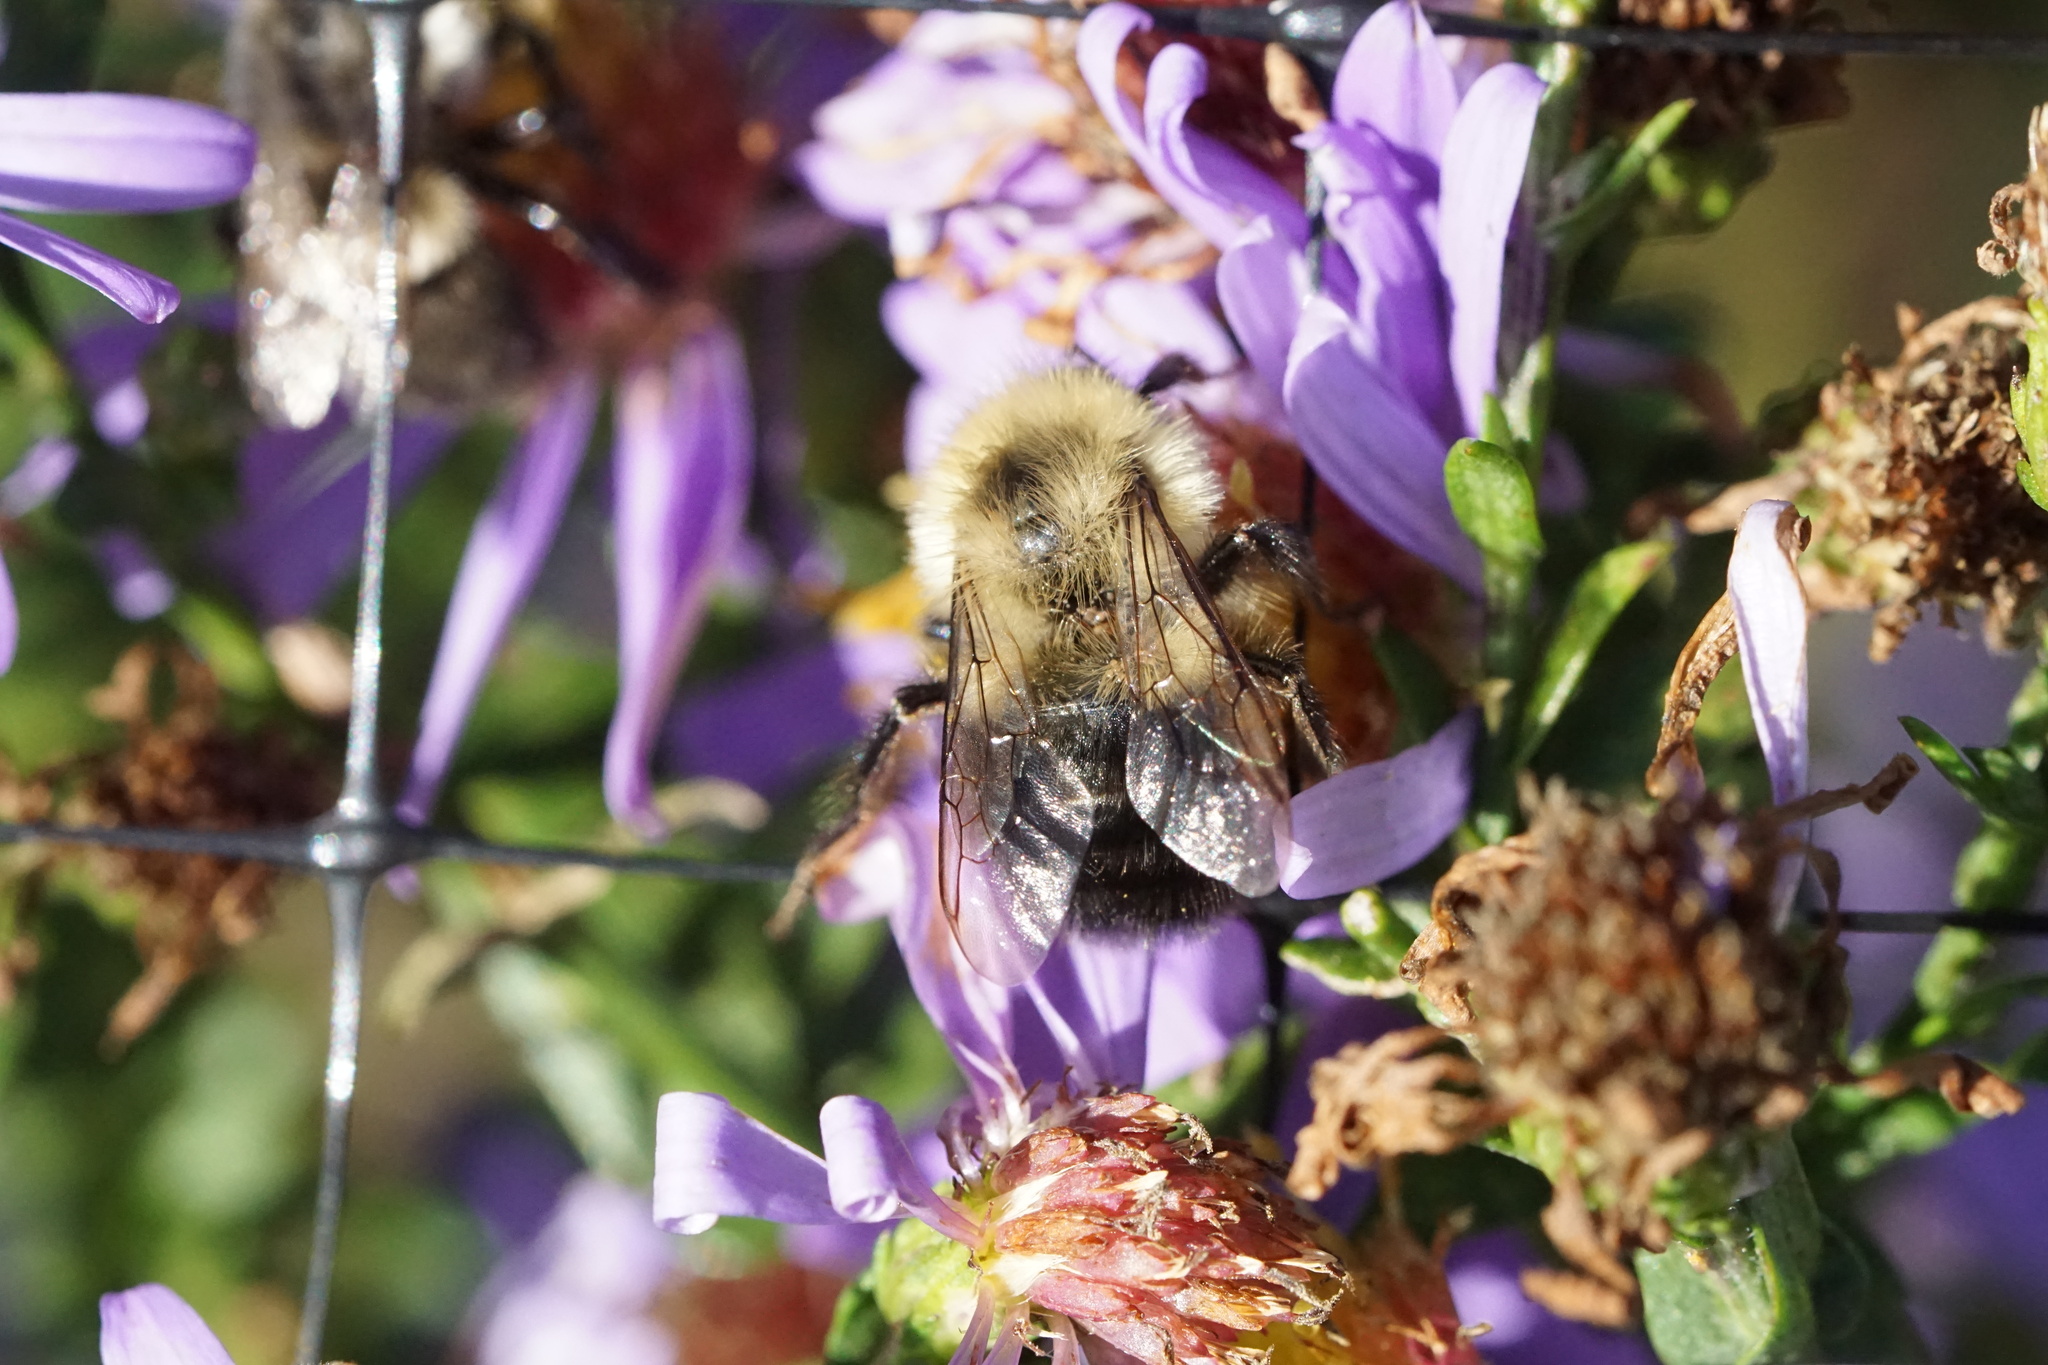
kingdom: Animalia
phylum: Arthropoda
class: Insecta
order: Hymenoptera
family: Apidae
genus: Bombus
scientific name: Bombus impatiens
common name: Common eastern bumble bee
